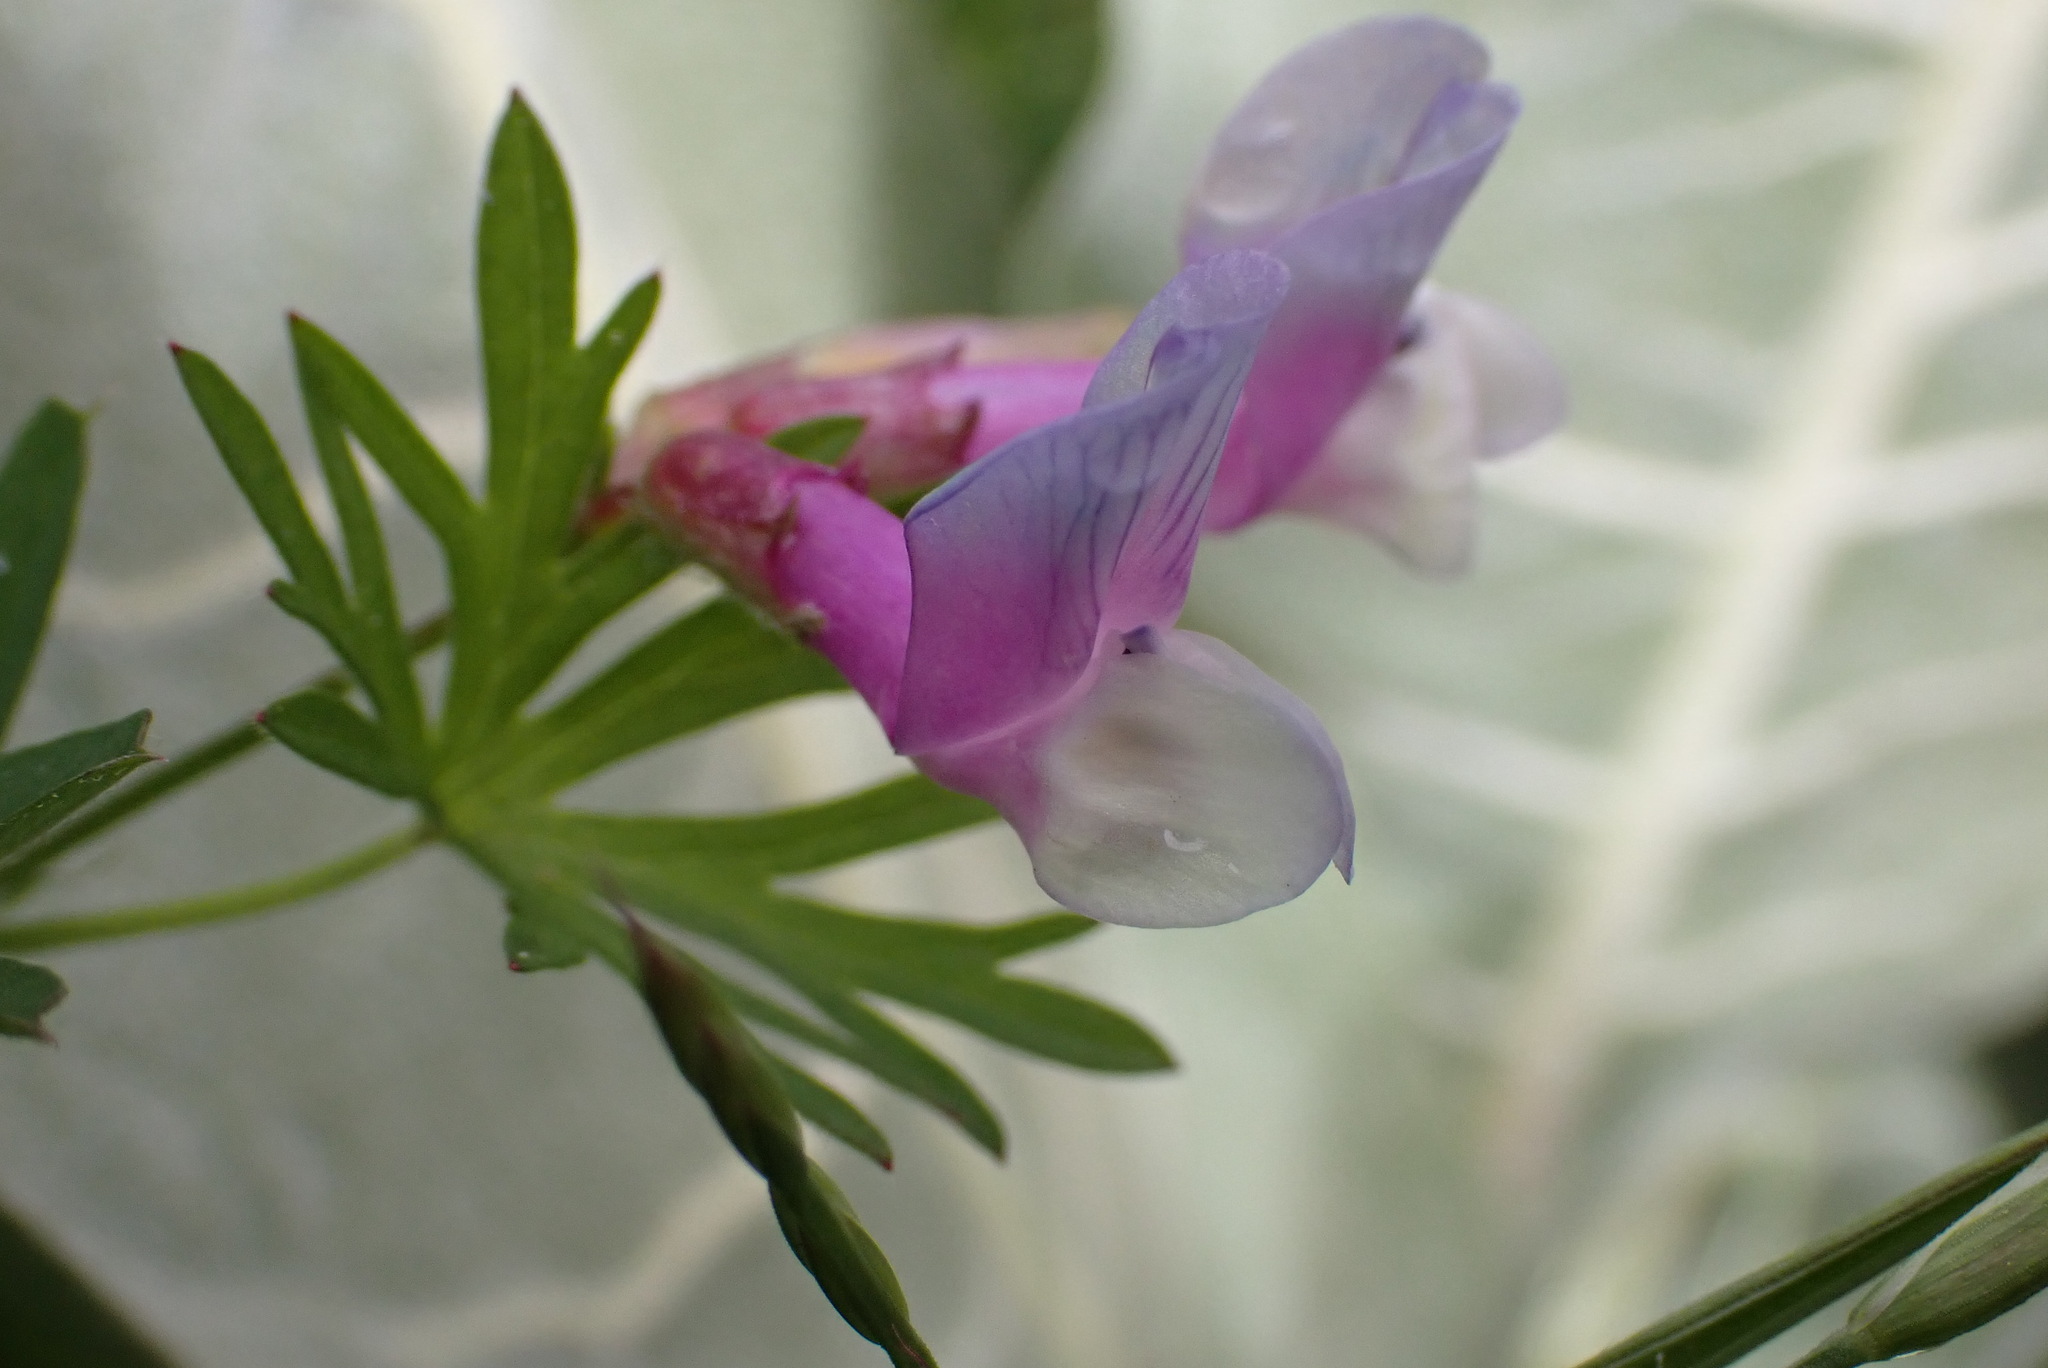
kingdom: Plantae
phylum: Tracheophyta
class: Magnoliopsida
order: Fabales
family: Fabaceae
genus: Vicia
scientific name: Vicia americana
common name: American vetch
